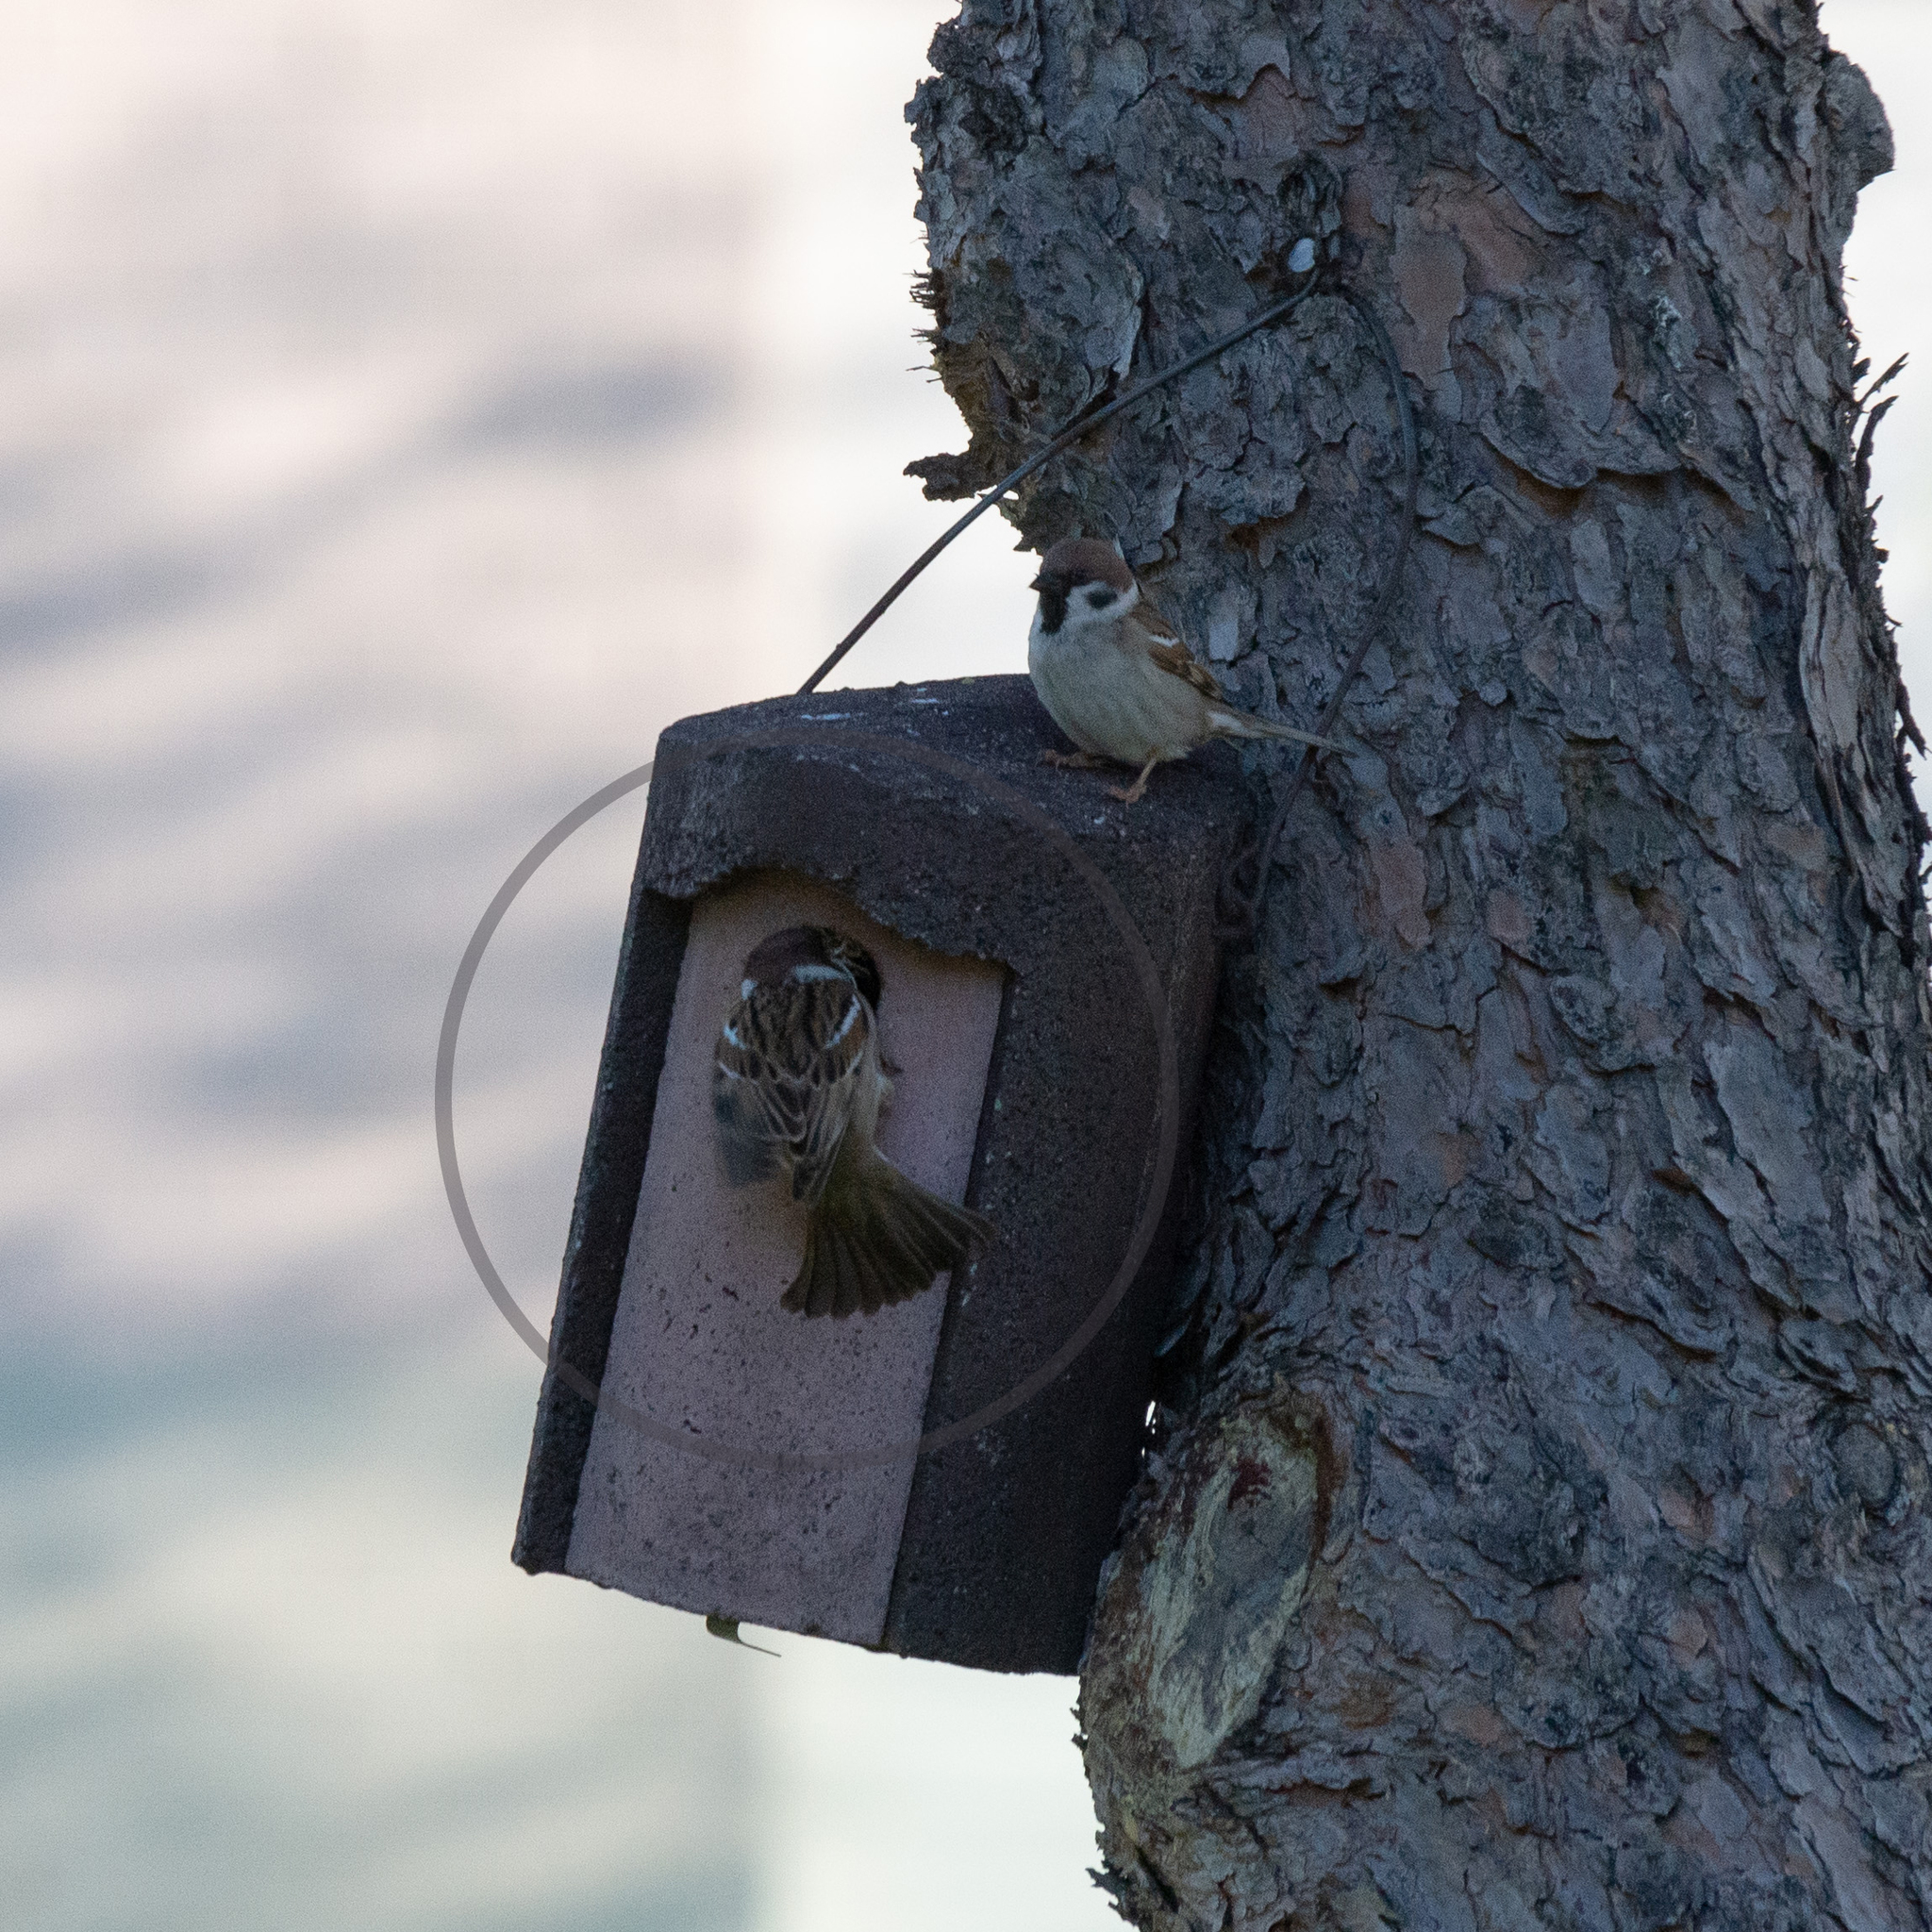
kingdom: Animalia
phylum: Chordata
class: Aves
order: Passeriformes
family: Passeridae
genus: Passer
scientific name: Passer montanus
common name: Eurasian tree sparrow
